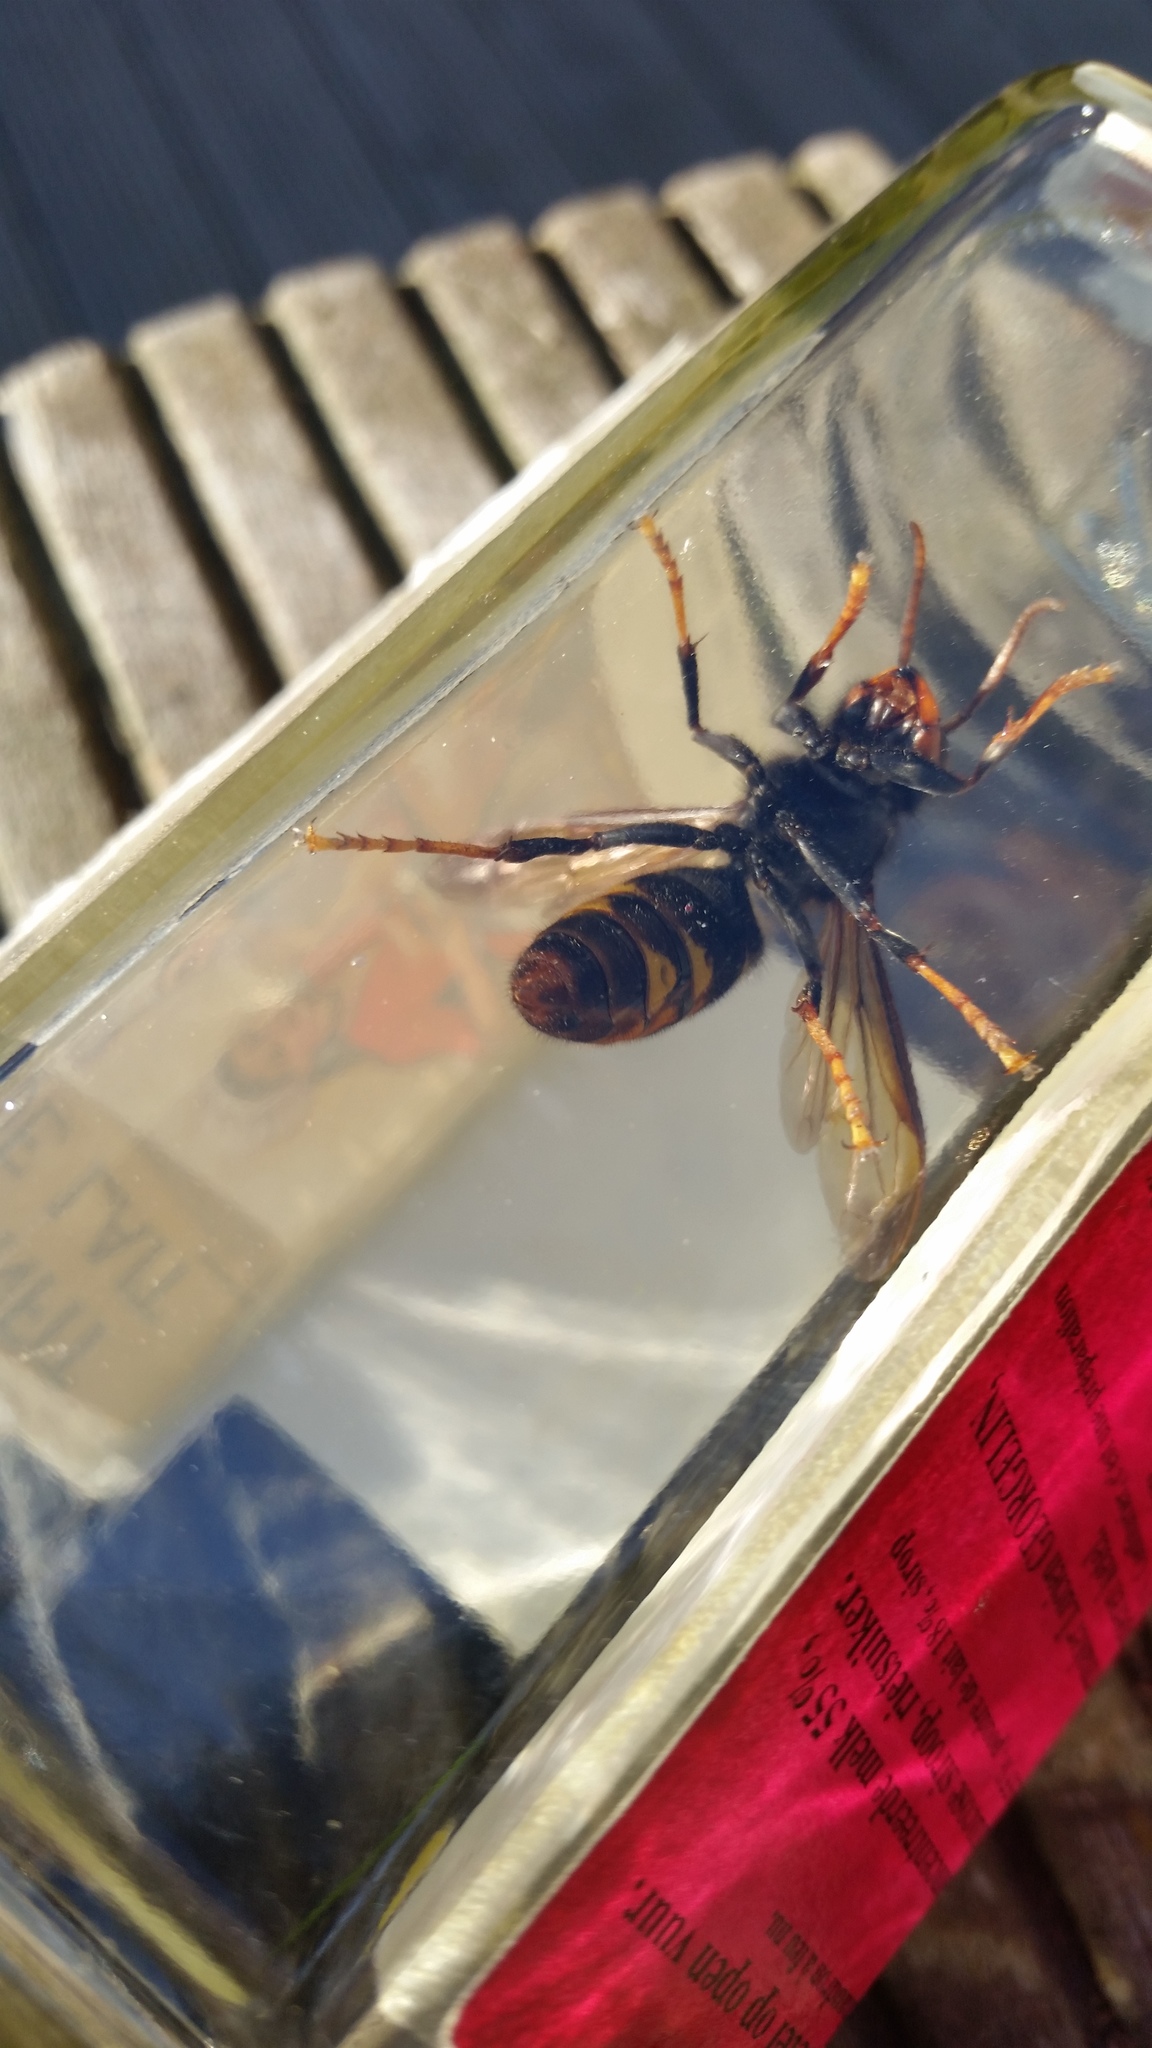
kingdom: Animalia
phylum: Arthropoda
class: Insecta
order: Hymenoptera
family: Vespidae
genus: Vespa
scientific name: Vespa velutina
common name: Asian hornet
